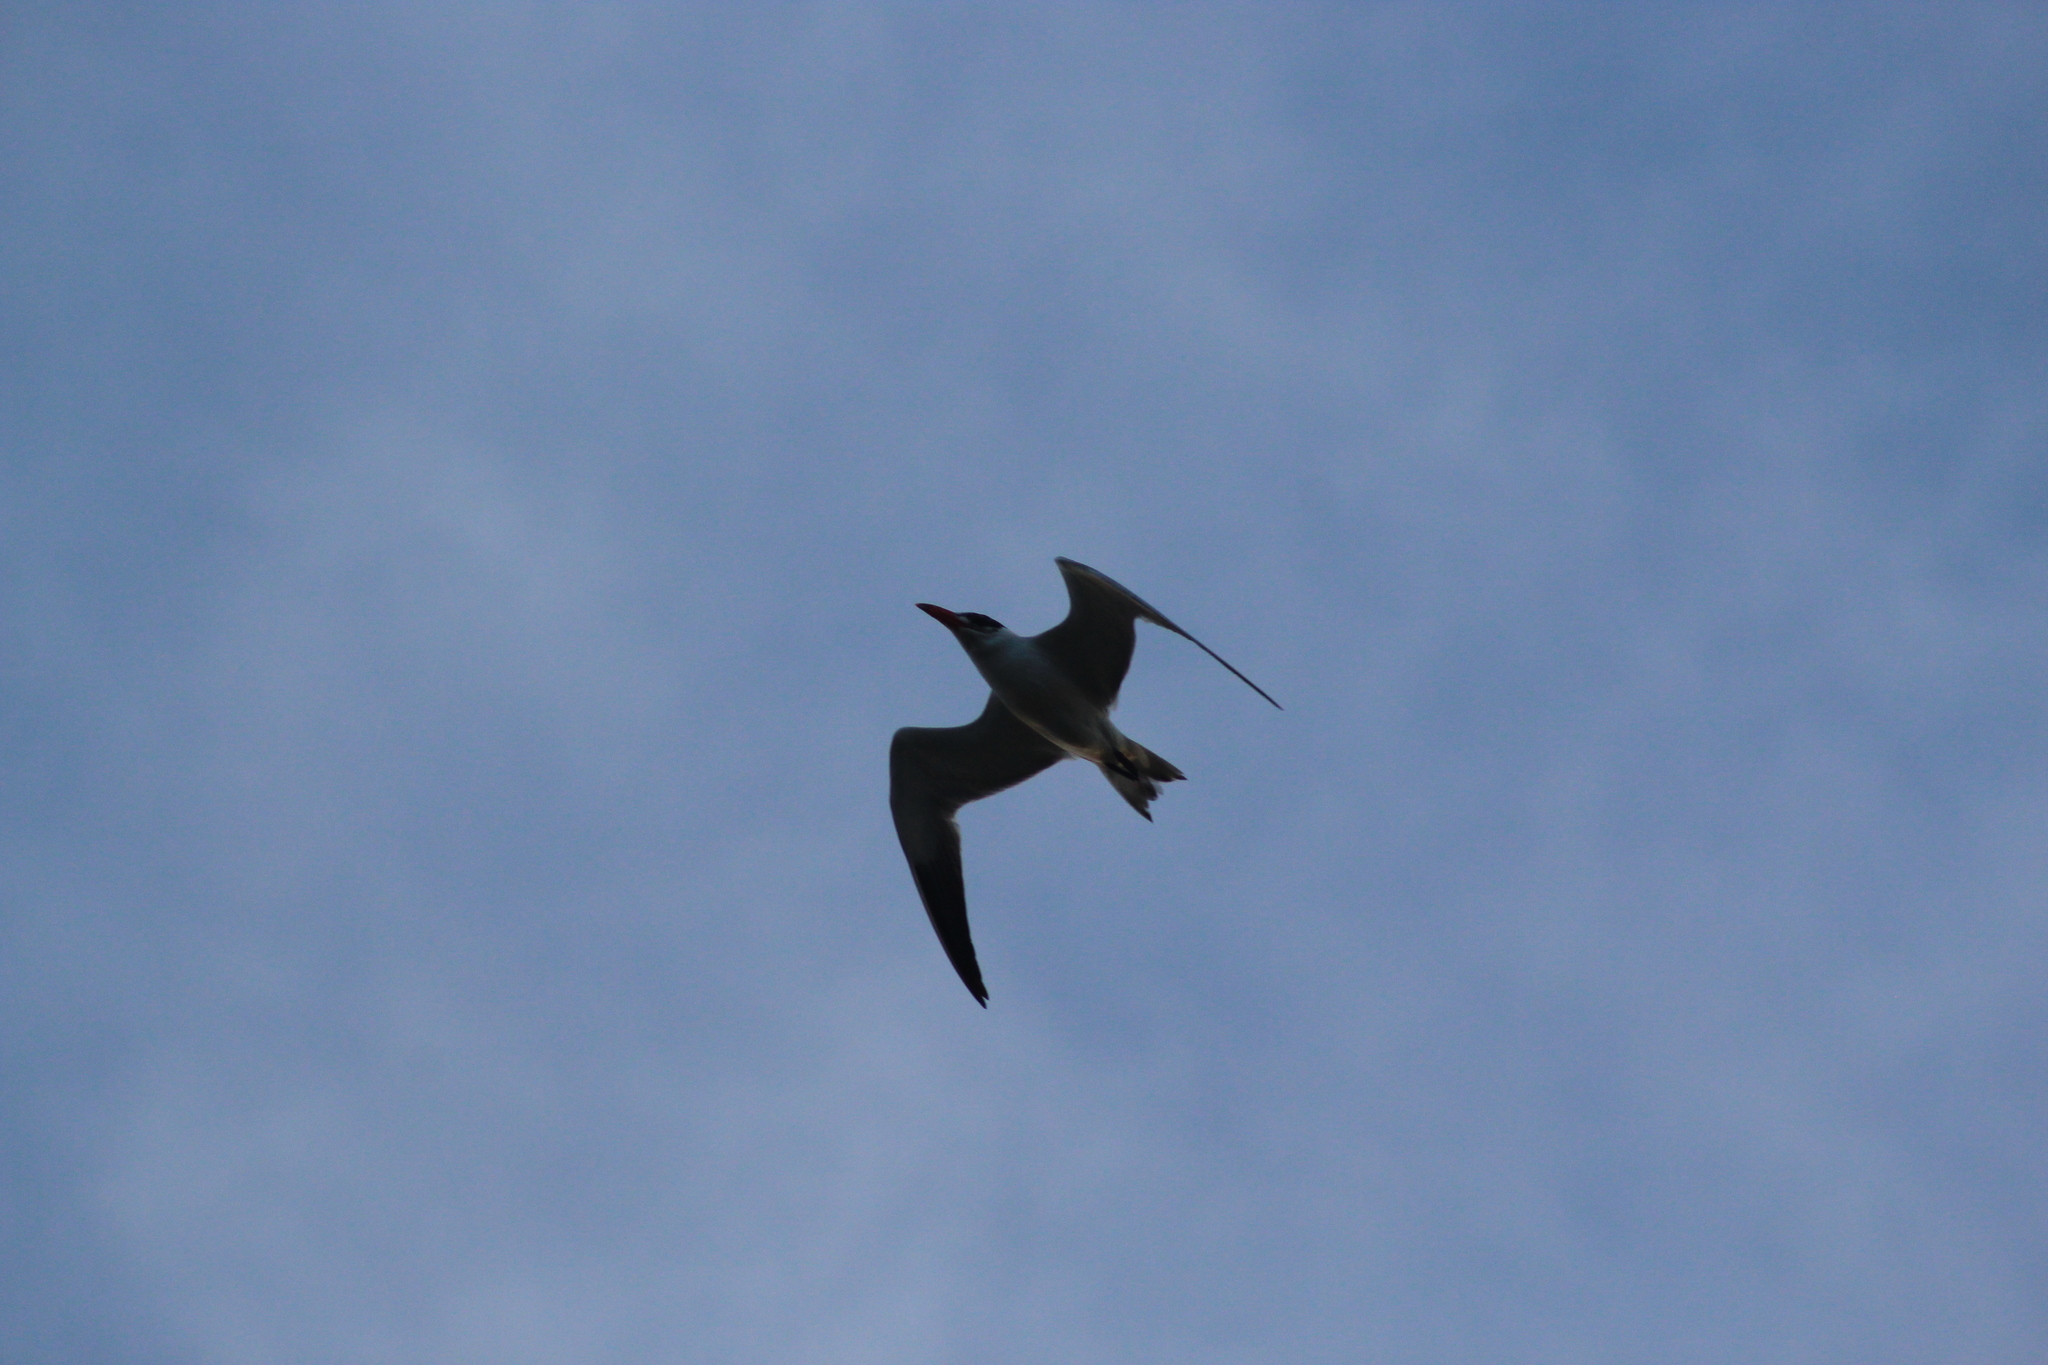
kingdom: Animalia
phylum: Chordata
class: Aves
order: Charadriiformes
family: Laridae
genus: Hydroprogne
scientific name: Hydroprogne caspia
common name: Caspian tern
